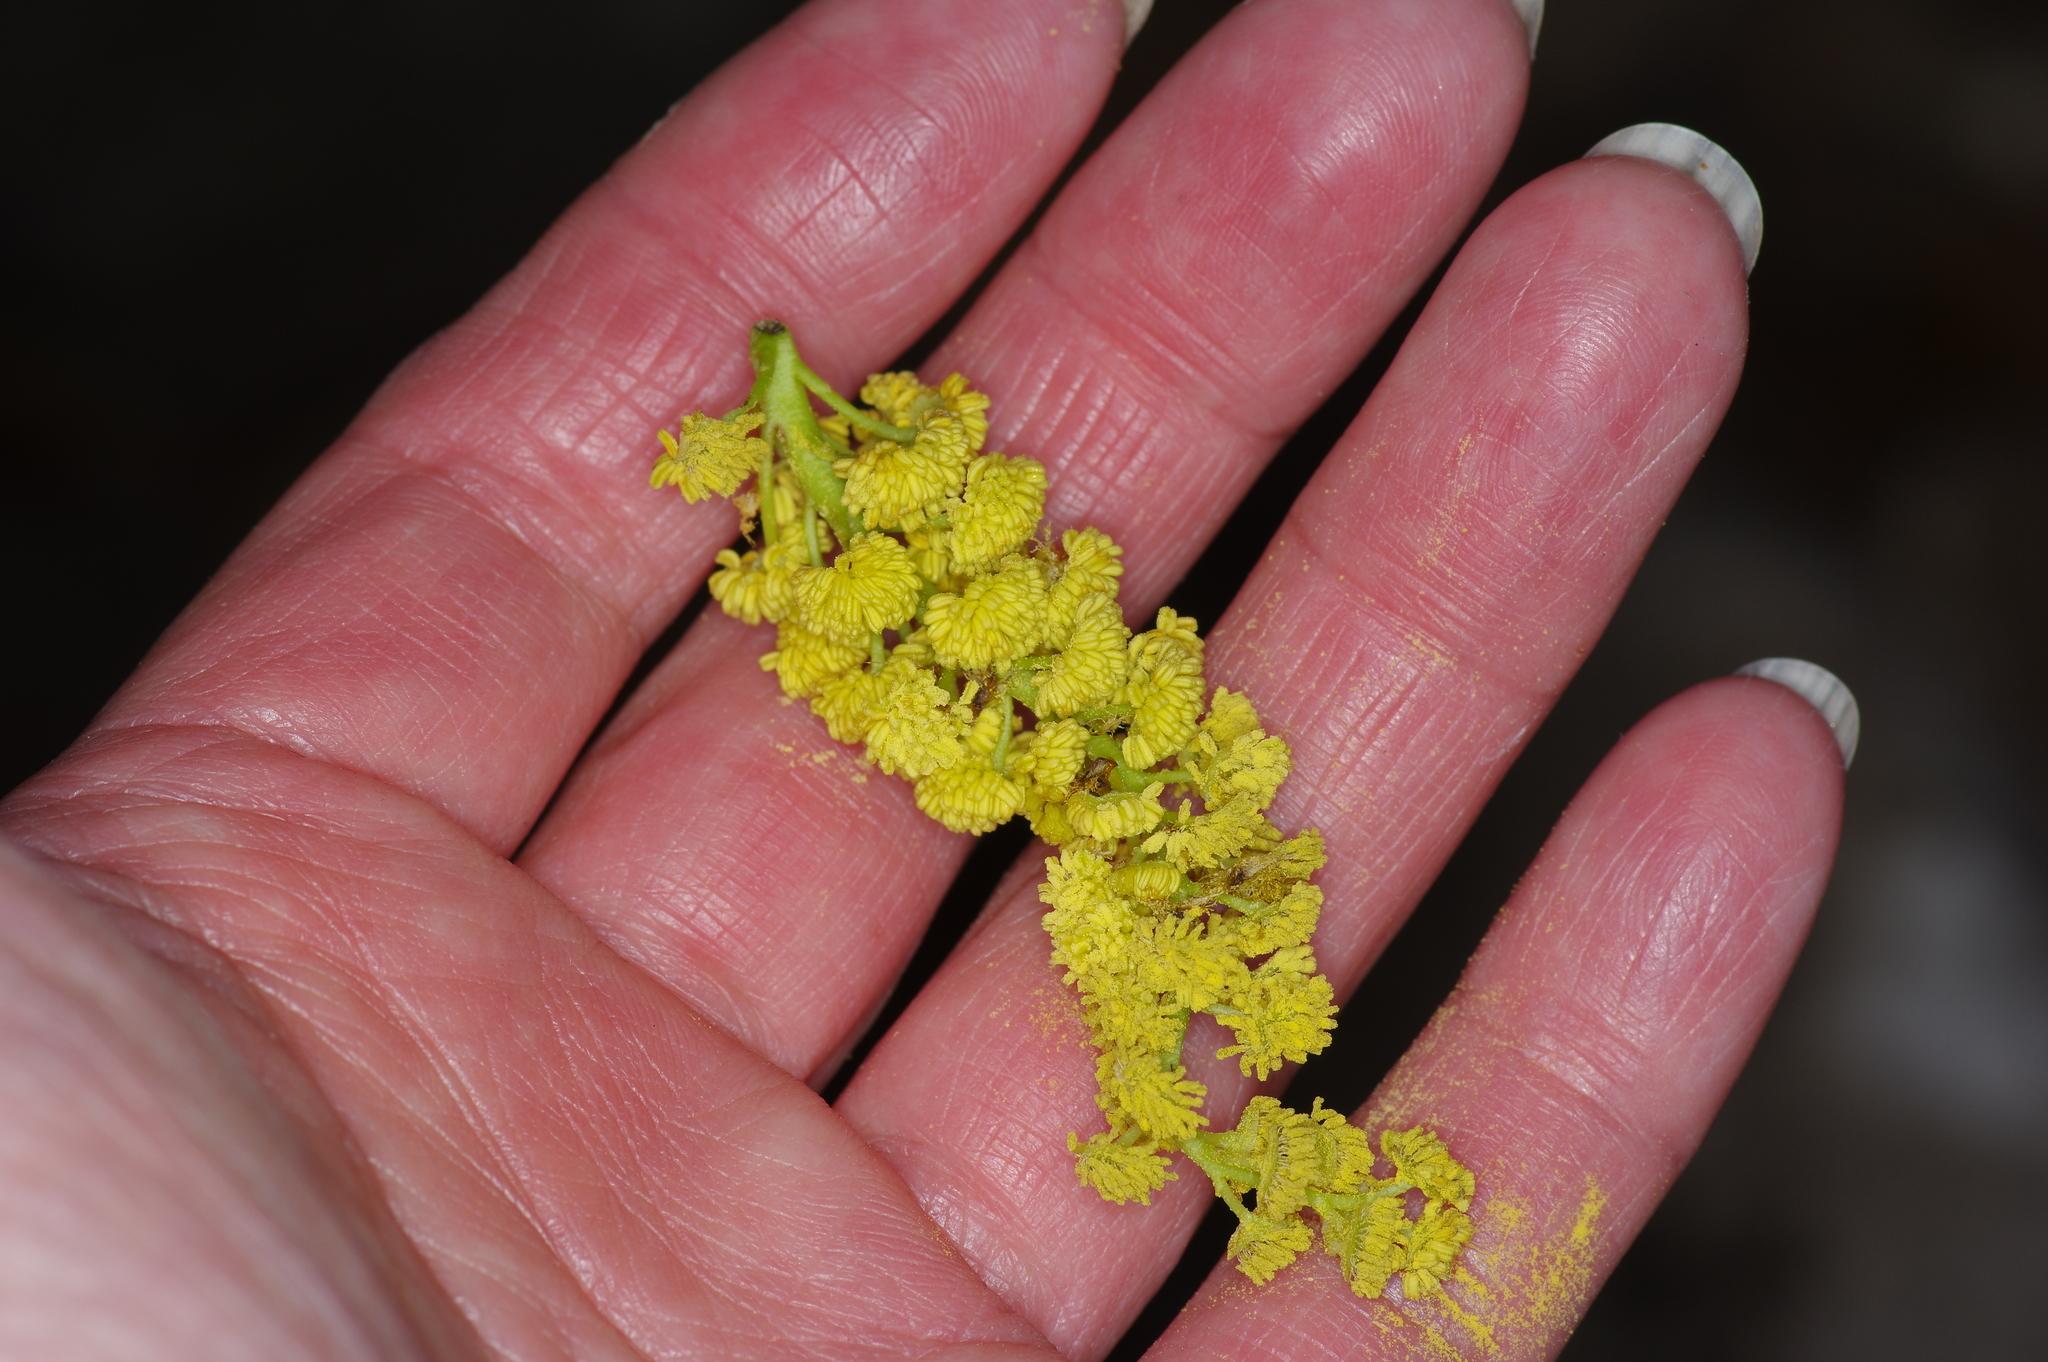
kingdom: Plantae
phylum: Tracheophyta
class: Magnoliopsida
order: Malpighiales
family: Salicaceae
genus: Populus
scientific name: Populus deltoides
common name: Eastern cottonwood
